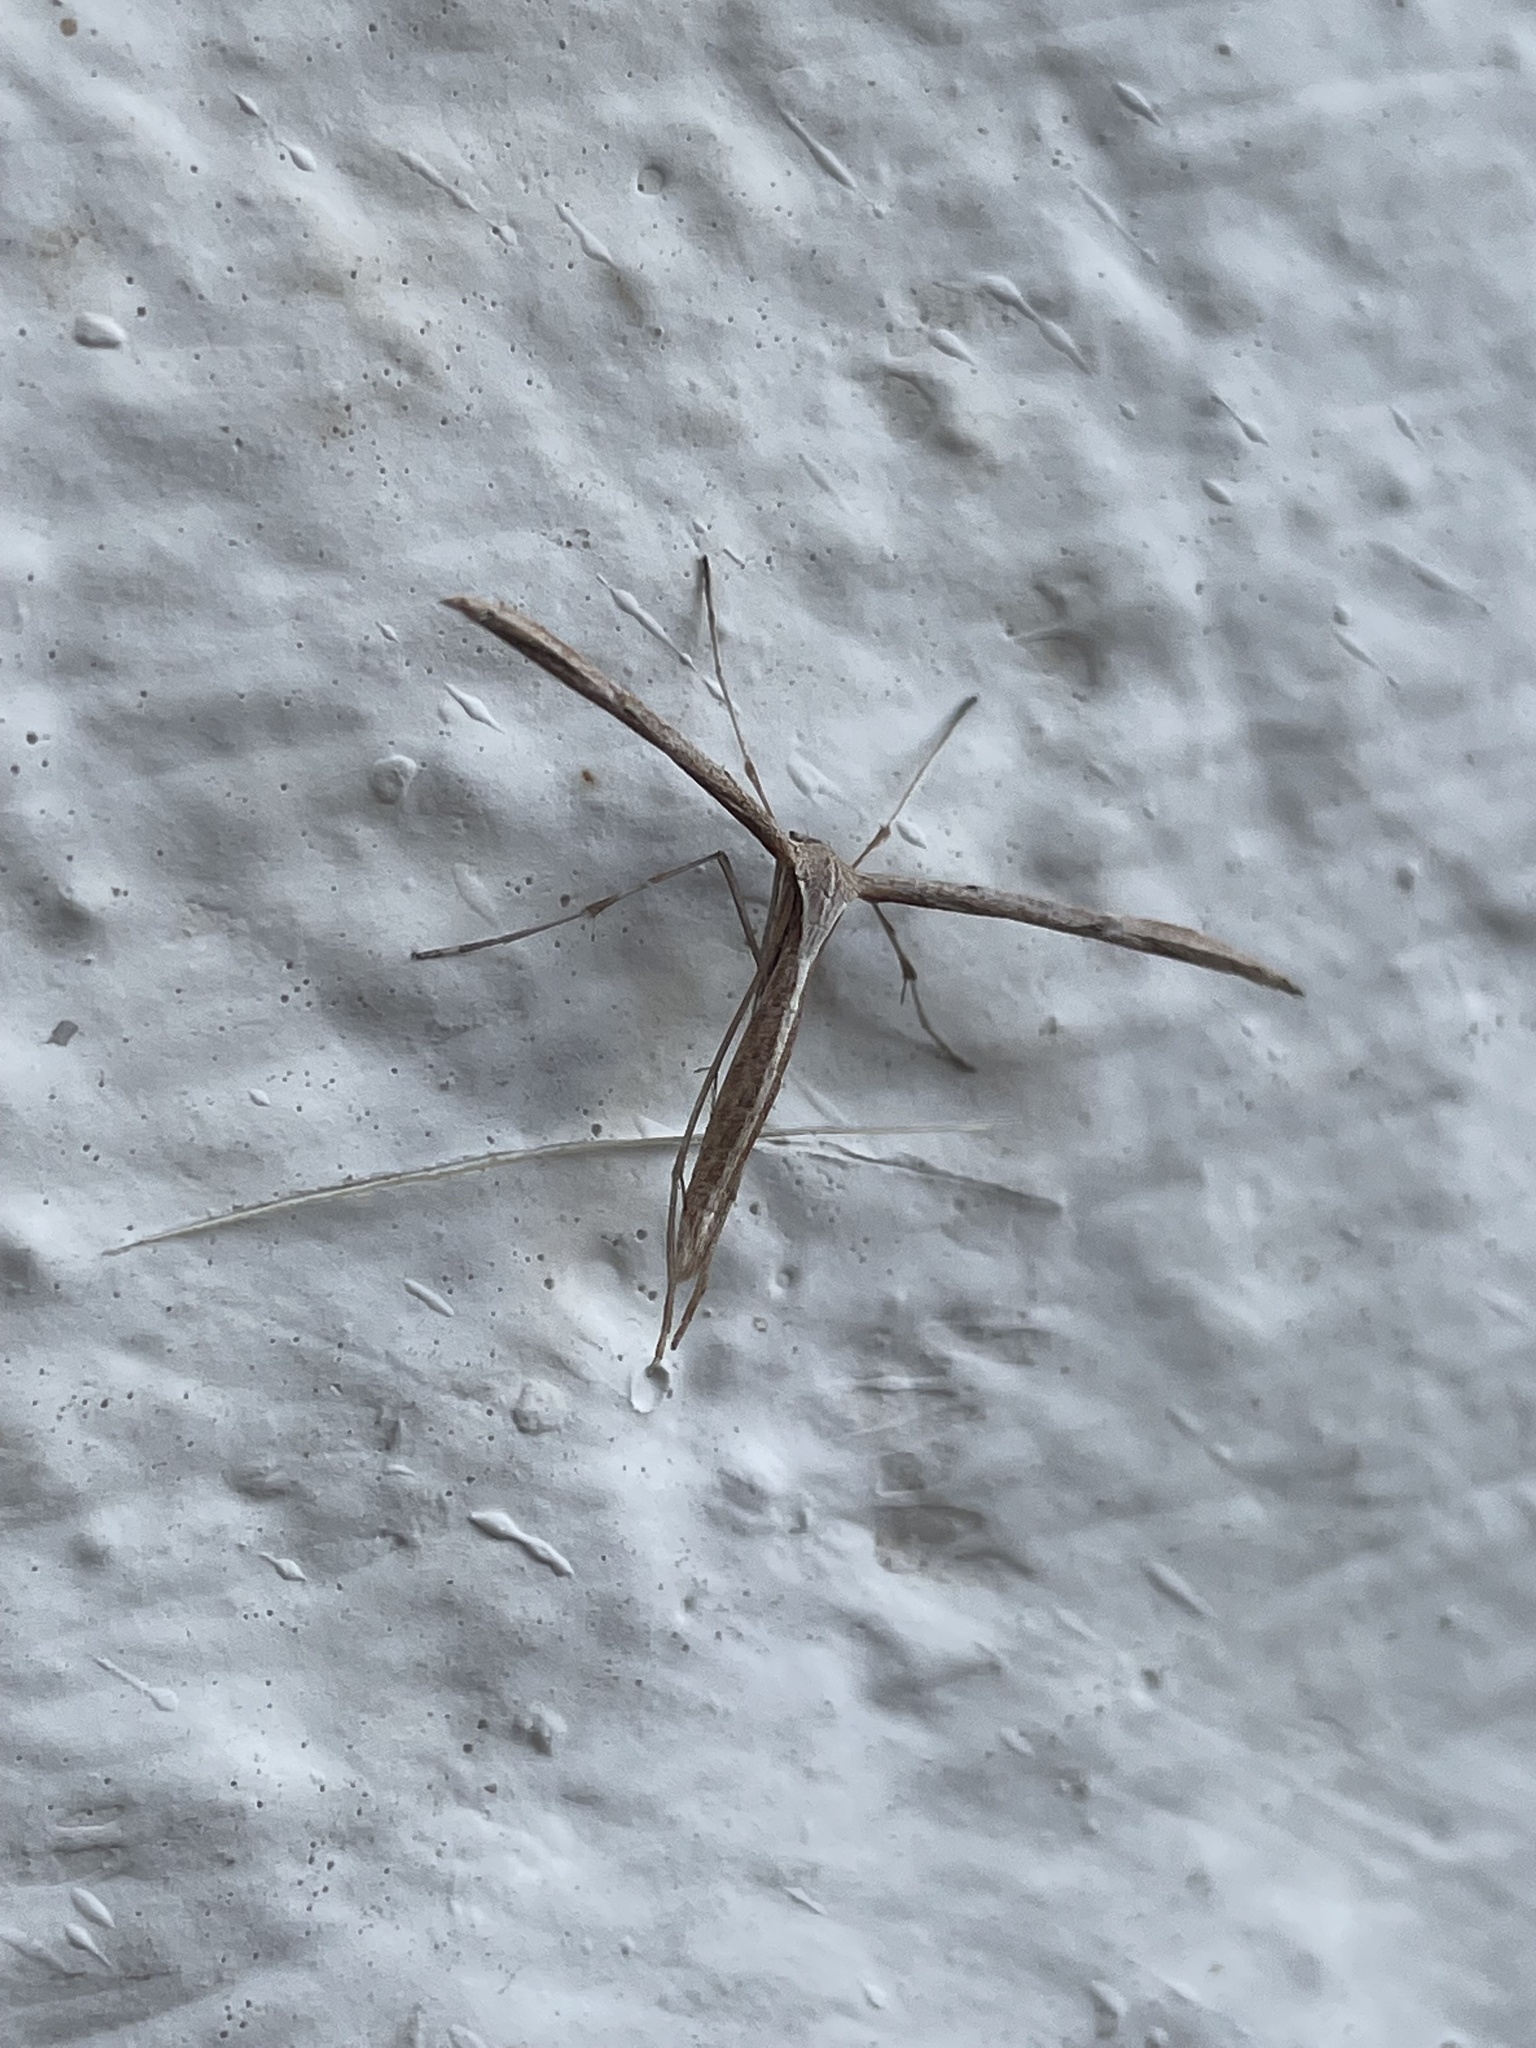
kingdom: Animalia
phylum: Arthropoda
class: Insecta
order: Lepidoptera
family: Pterophoridae
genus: Emmelina
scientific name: Emmelina monodactyla
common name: Common plume
